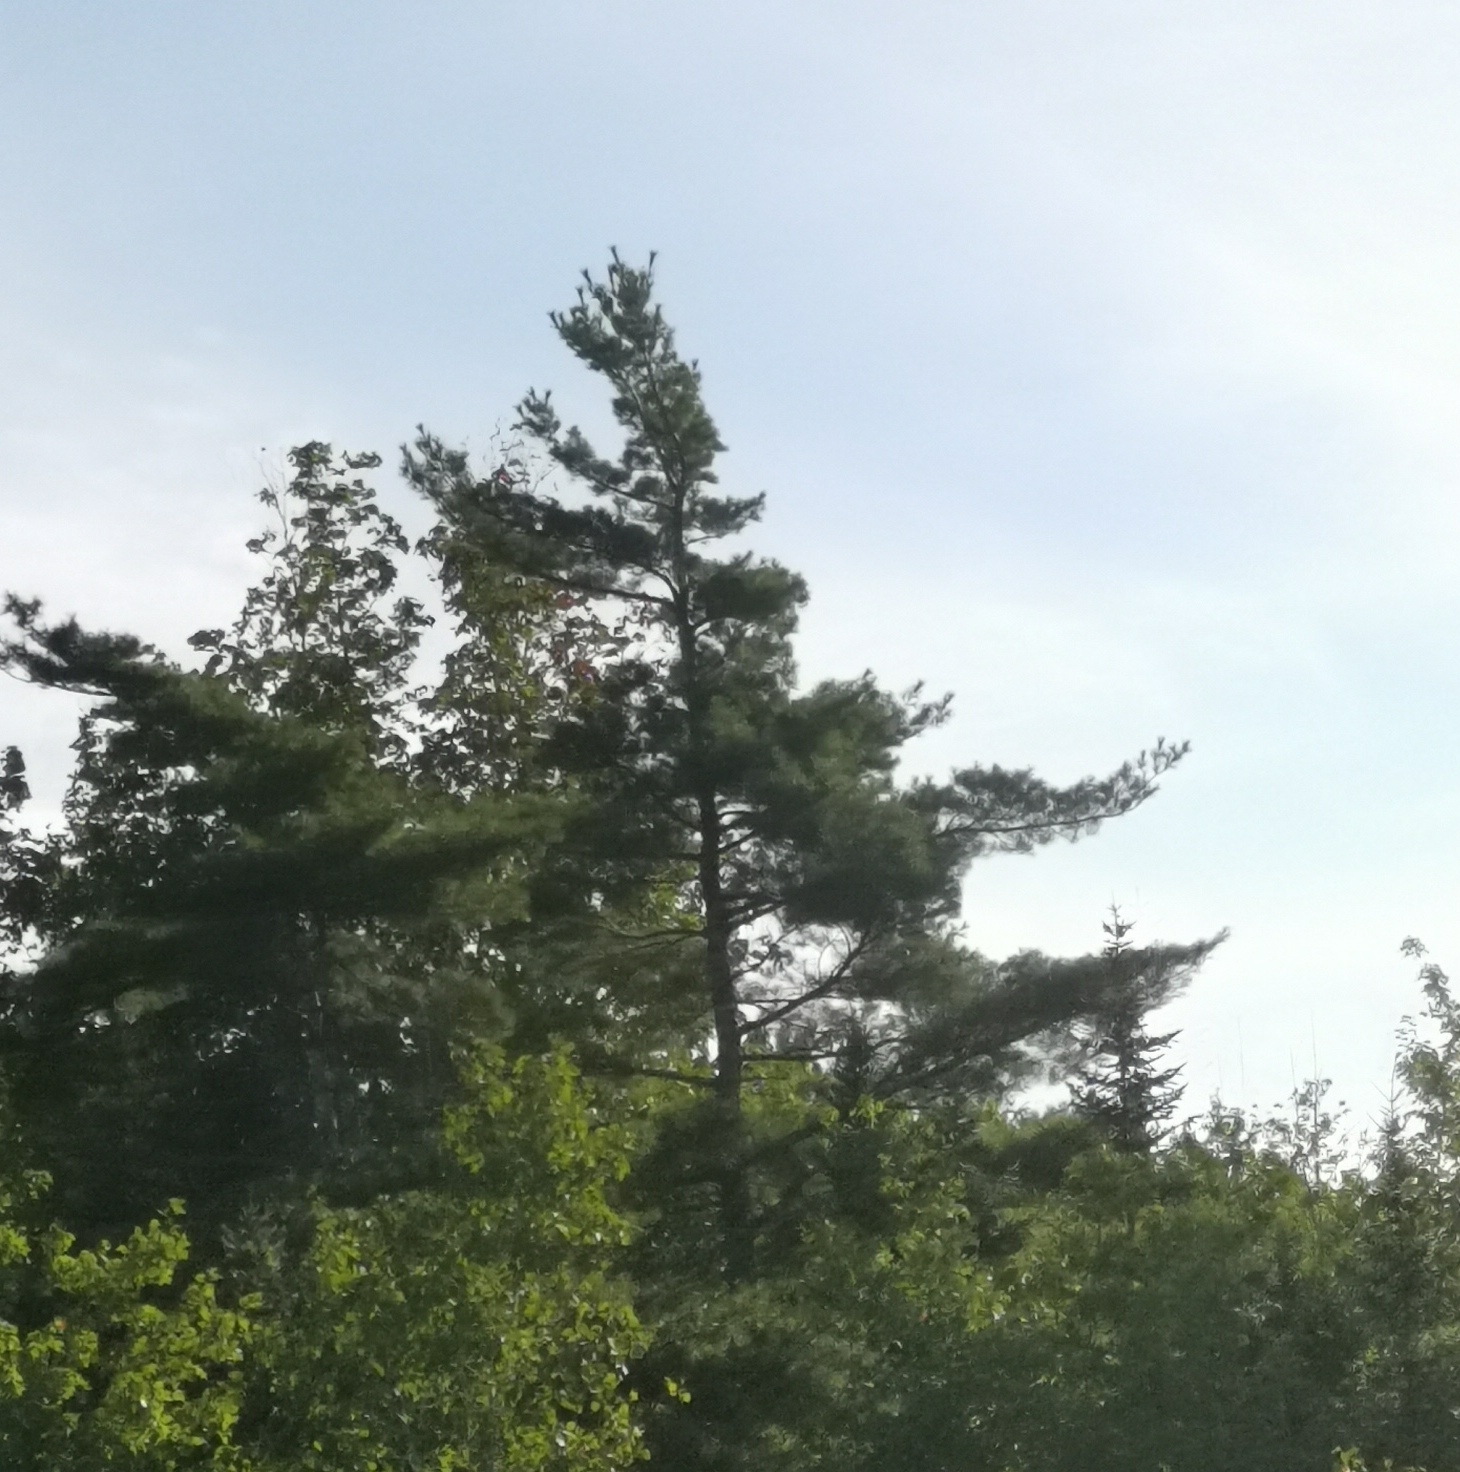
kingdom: Plantae
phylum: Tracheophyta
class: Pinopsida
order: Pinales
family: Pinaceae
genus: Pinus
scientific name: Pinus strobus
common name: Weymouth pine
